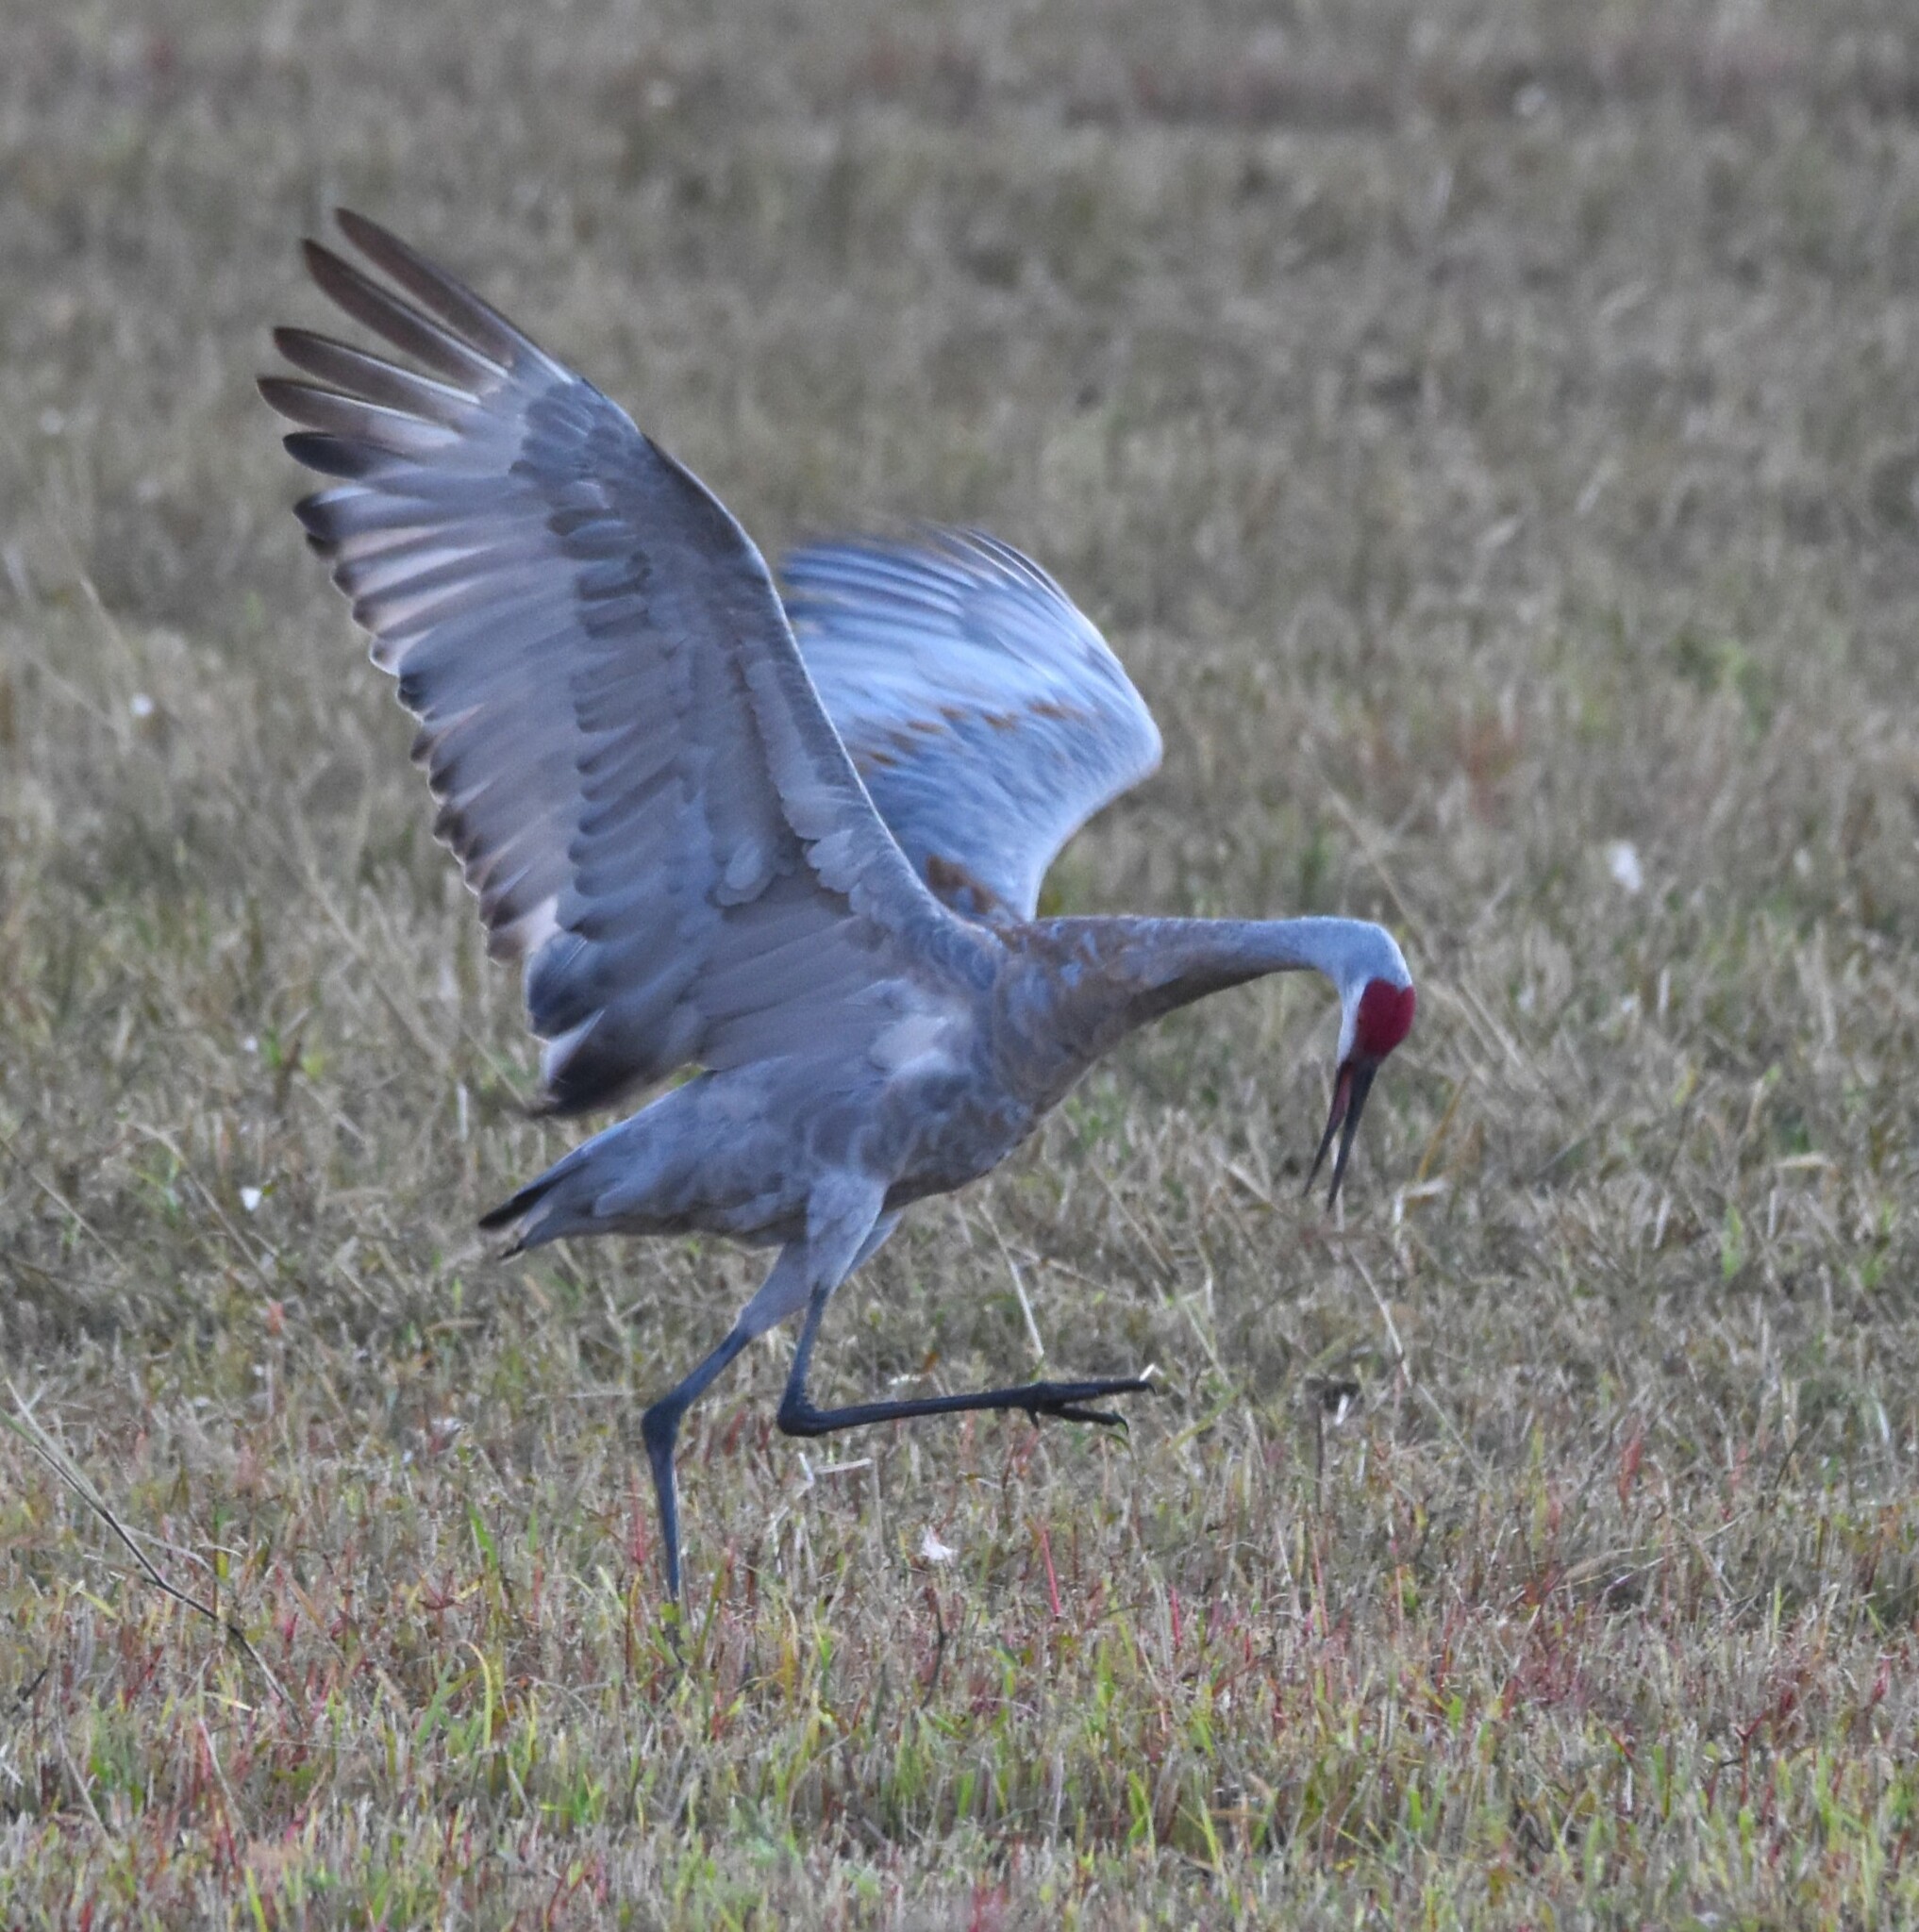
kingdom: Animalia
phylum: Chordata
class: Aves
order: Gruiformes
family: Gruidae
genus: Grus
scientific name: Grus canadensis
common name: Sandhill crane
